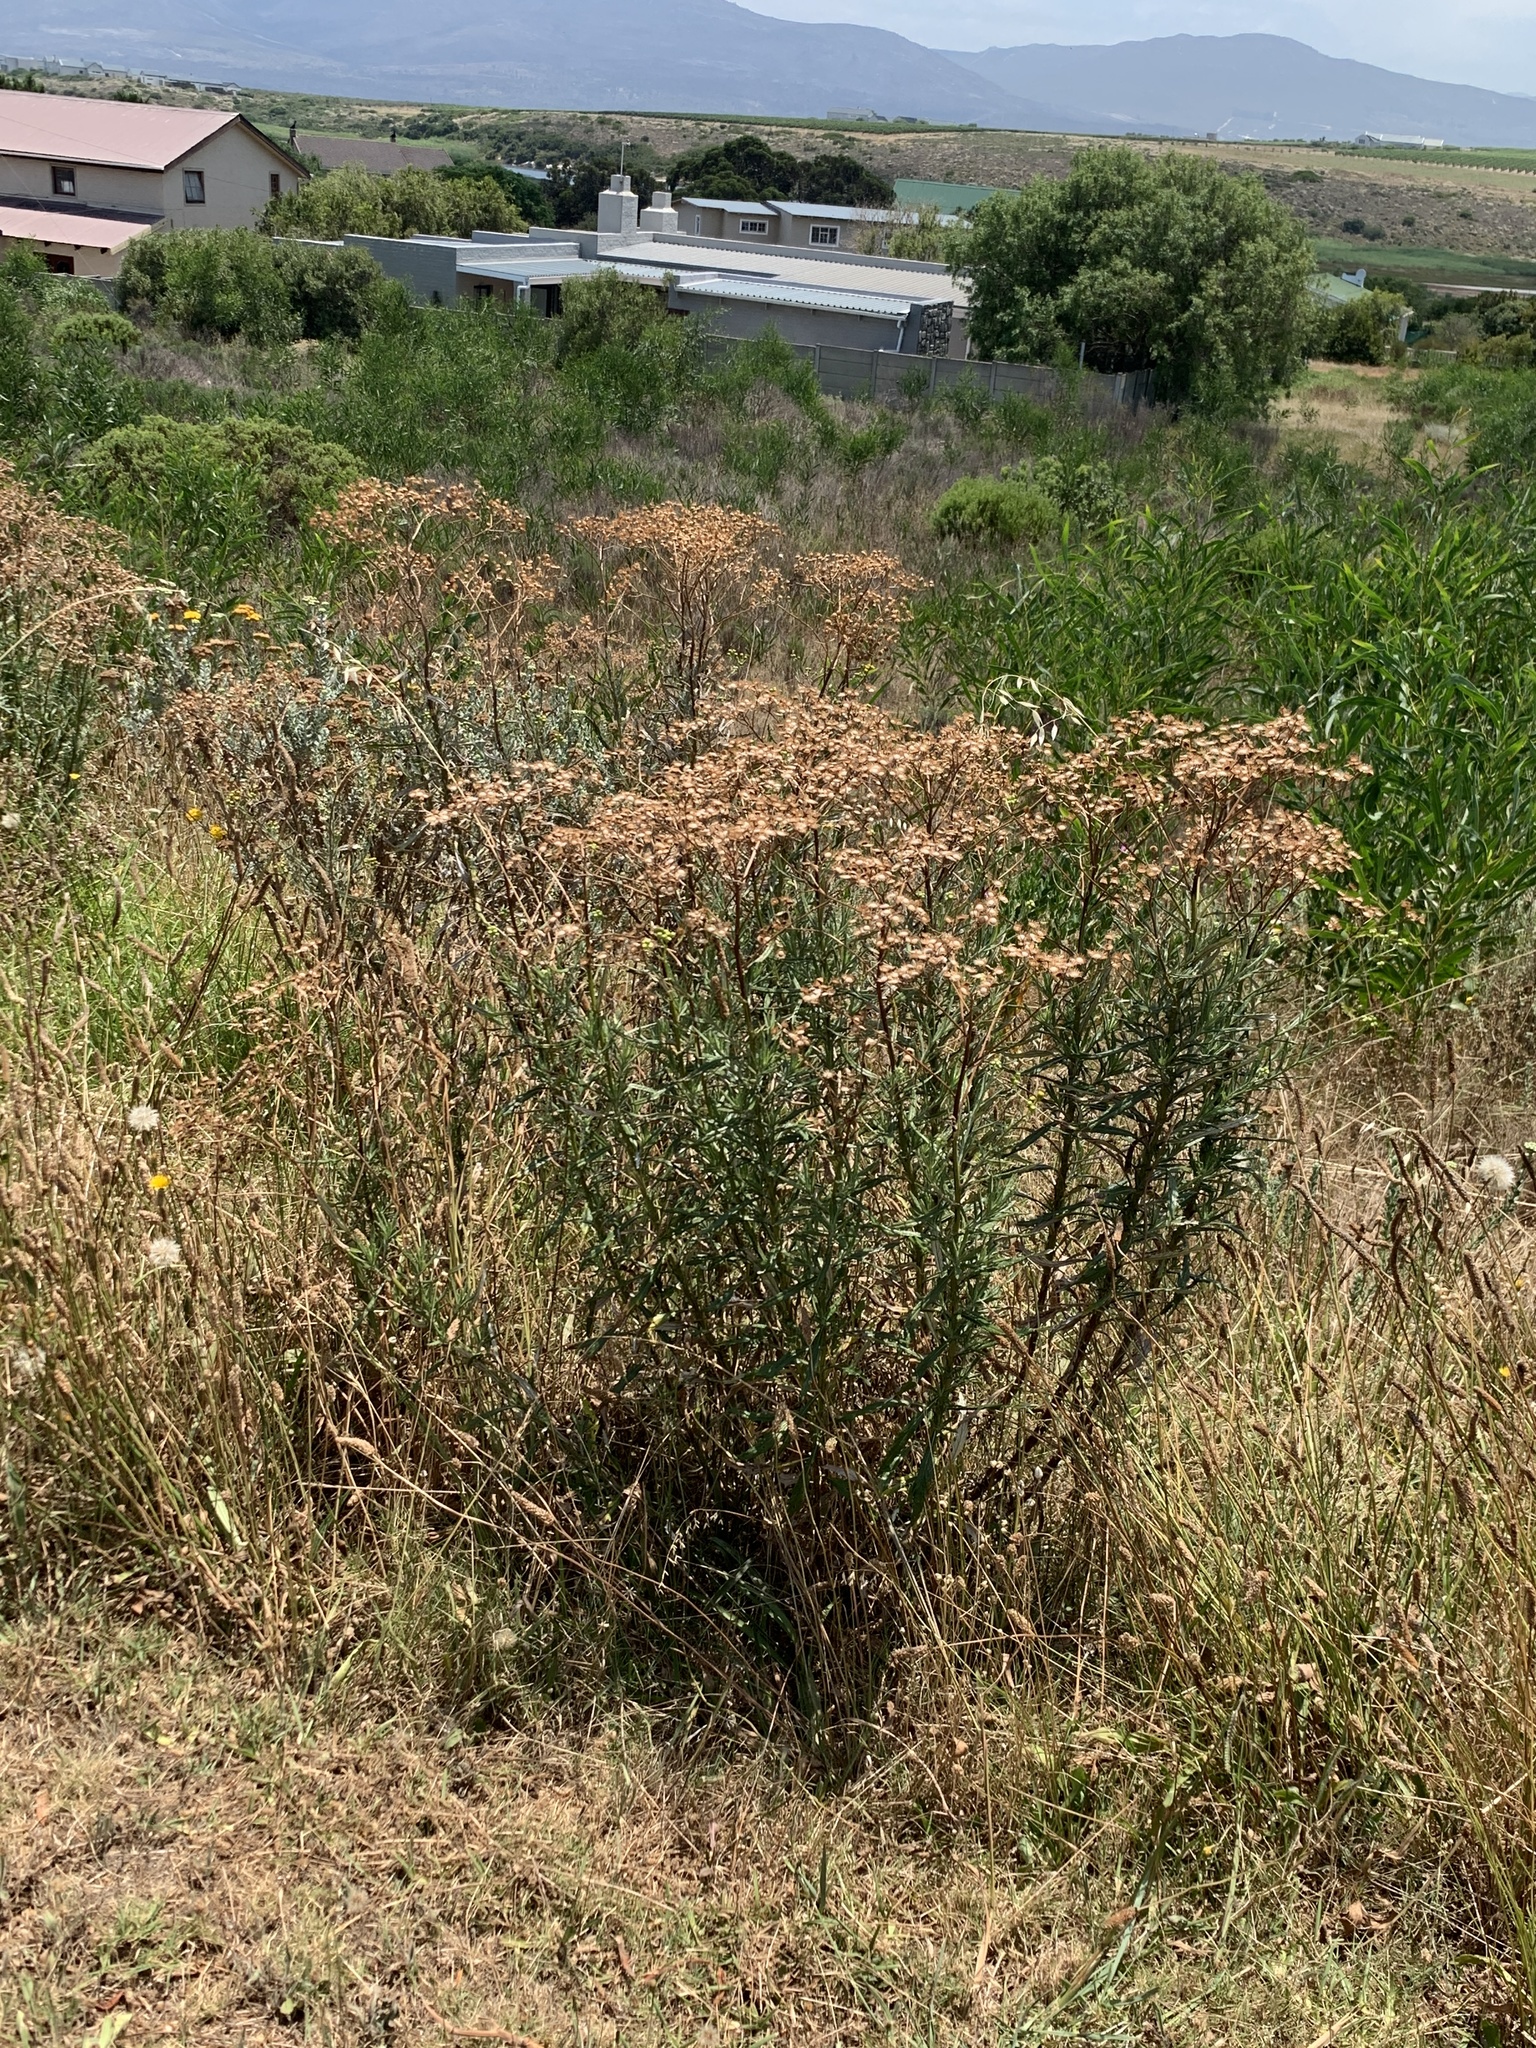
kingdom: Plantae
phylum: Tracheophyta
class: Magnoliopsida
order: Asterales
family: Asteraceae
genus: Senecio
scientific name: Senecio pterophorus
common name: Shoddy ragwort
